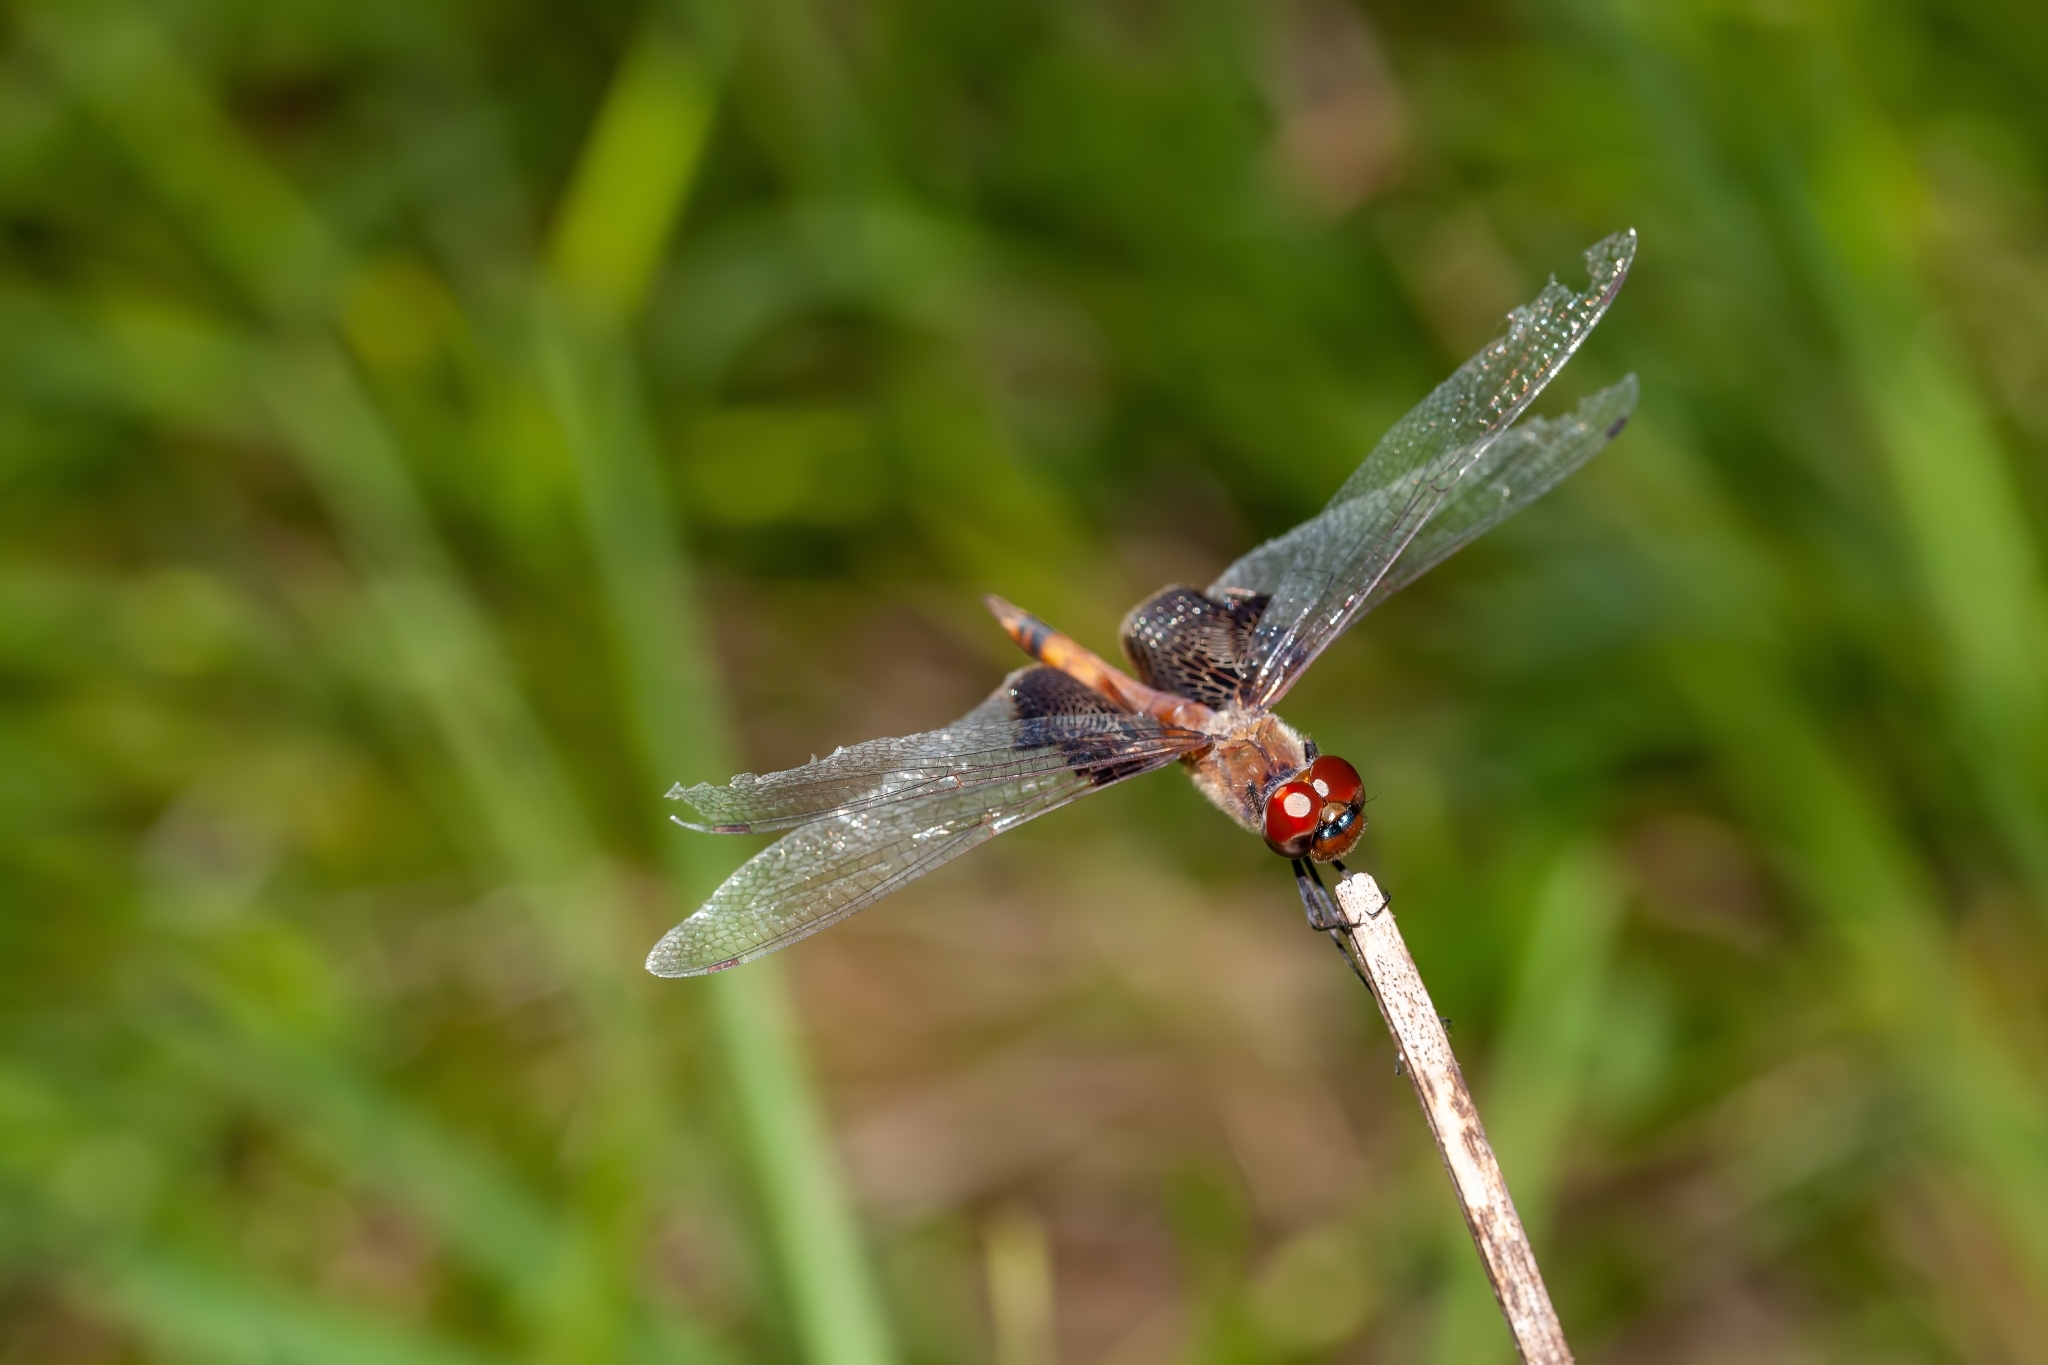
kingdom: Animalia
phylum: Arthropoda
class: Insecta
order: Odonata
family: Libellulidae
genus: Tramea
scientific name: Tramea carolina
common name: Carolina saddlebags
